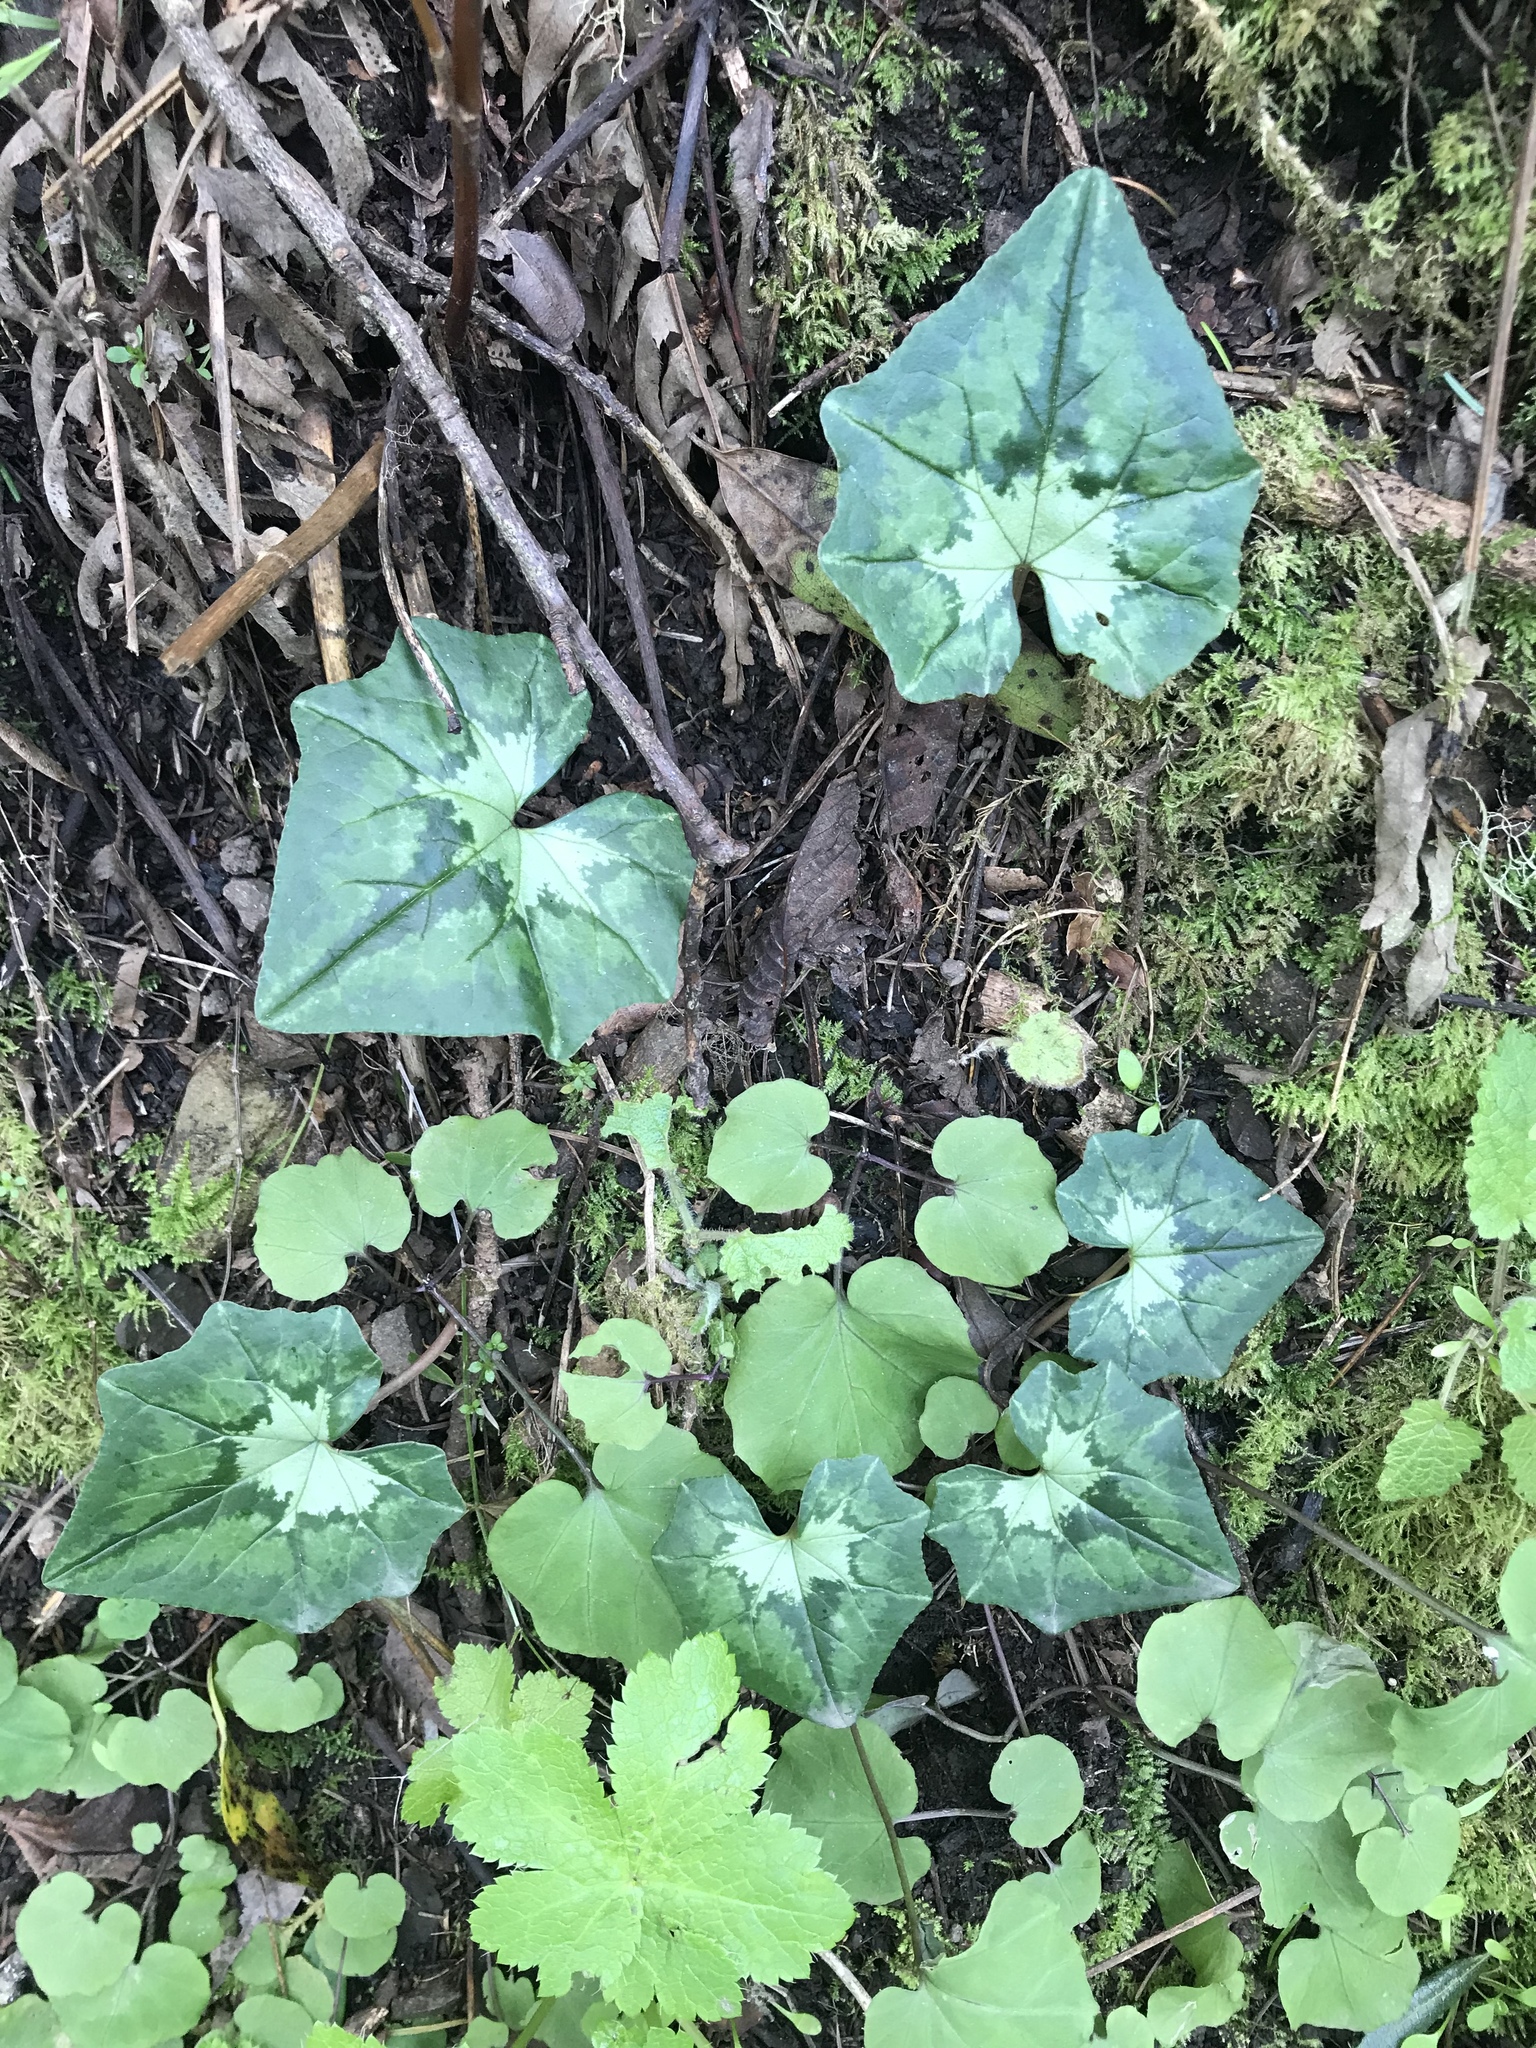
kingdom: Plantae
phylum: Tracheophyta
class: Magnoliopsida
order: Ericales
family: Primulaceae
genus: Cyclamen
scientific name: Cyclamen hederifolium
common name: Sowbread
